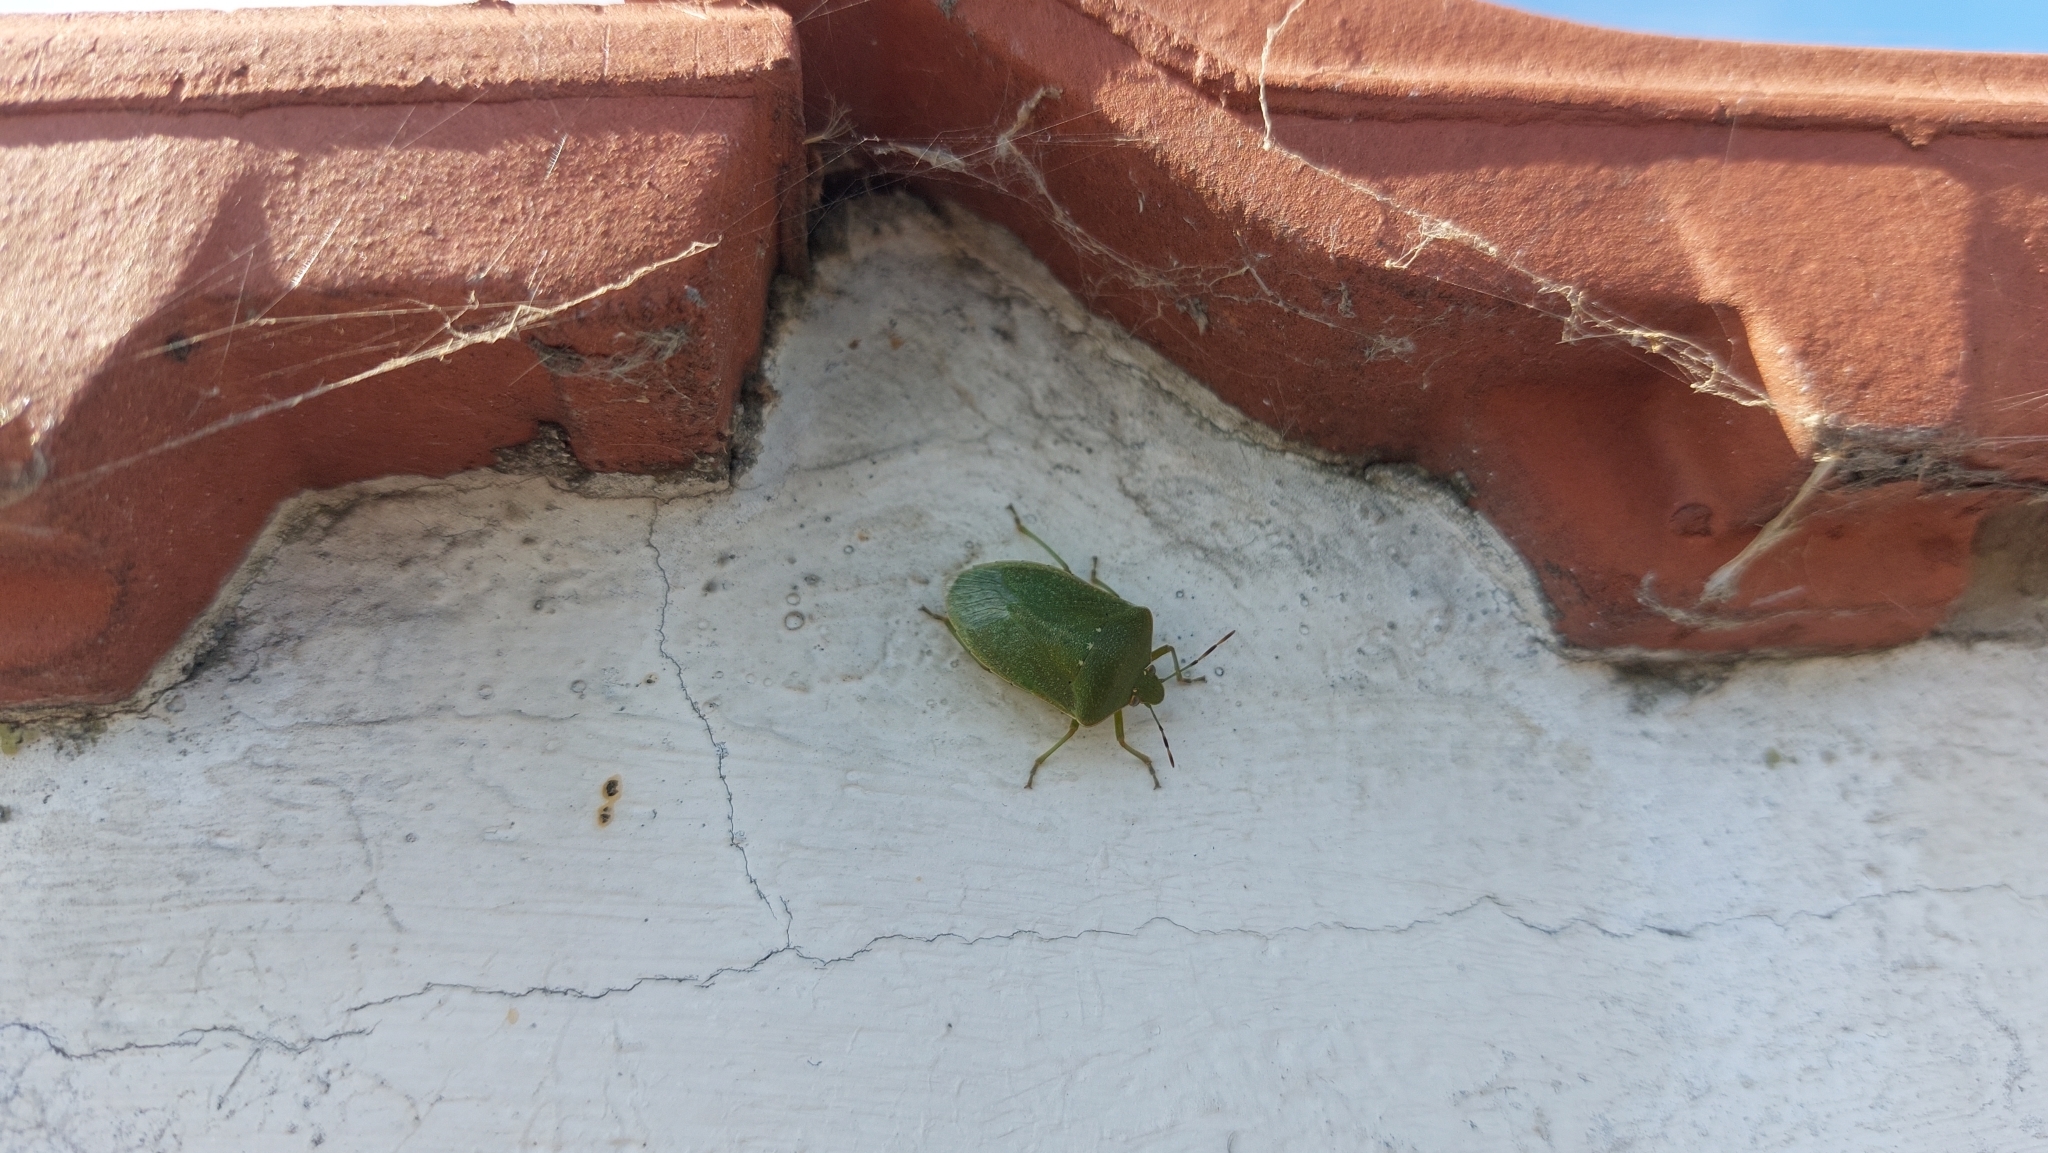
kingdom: Animalia
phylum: Arthropoda
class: Insecta
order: Hemiptera
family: Pentatomidae
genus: Nezara
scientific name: Nezara viridula
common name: Southern green stink bug
